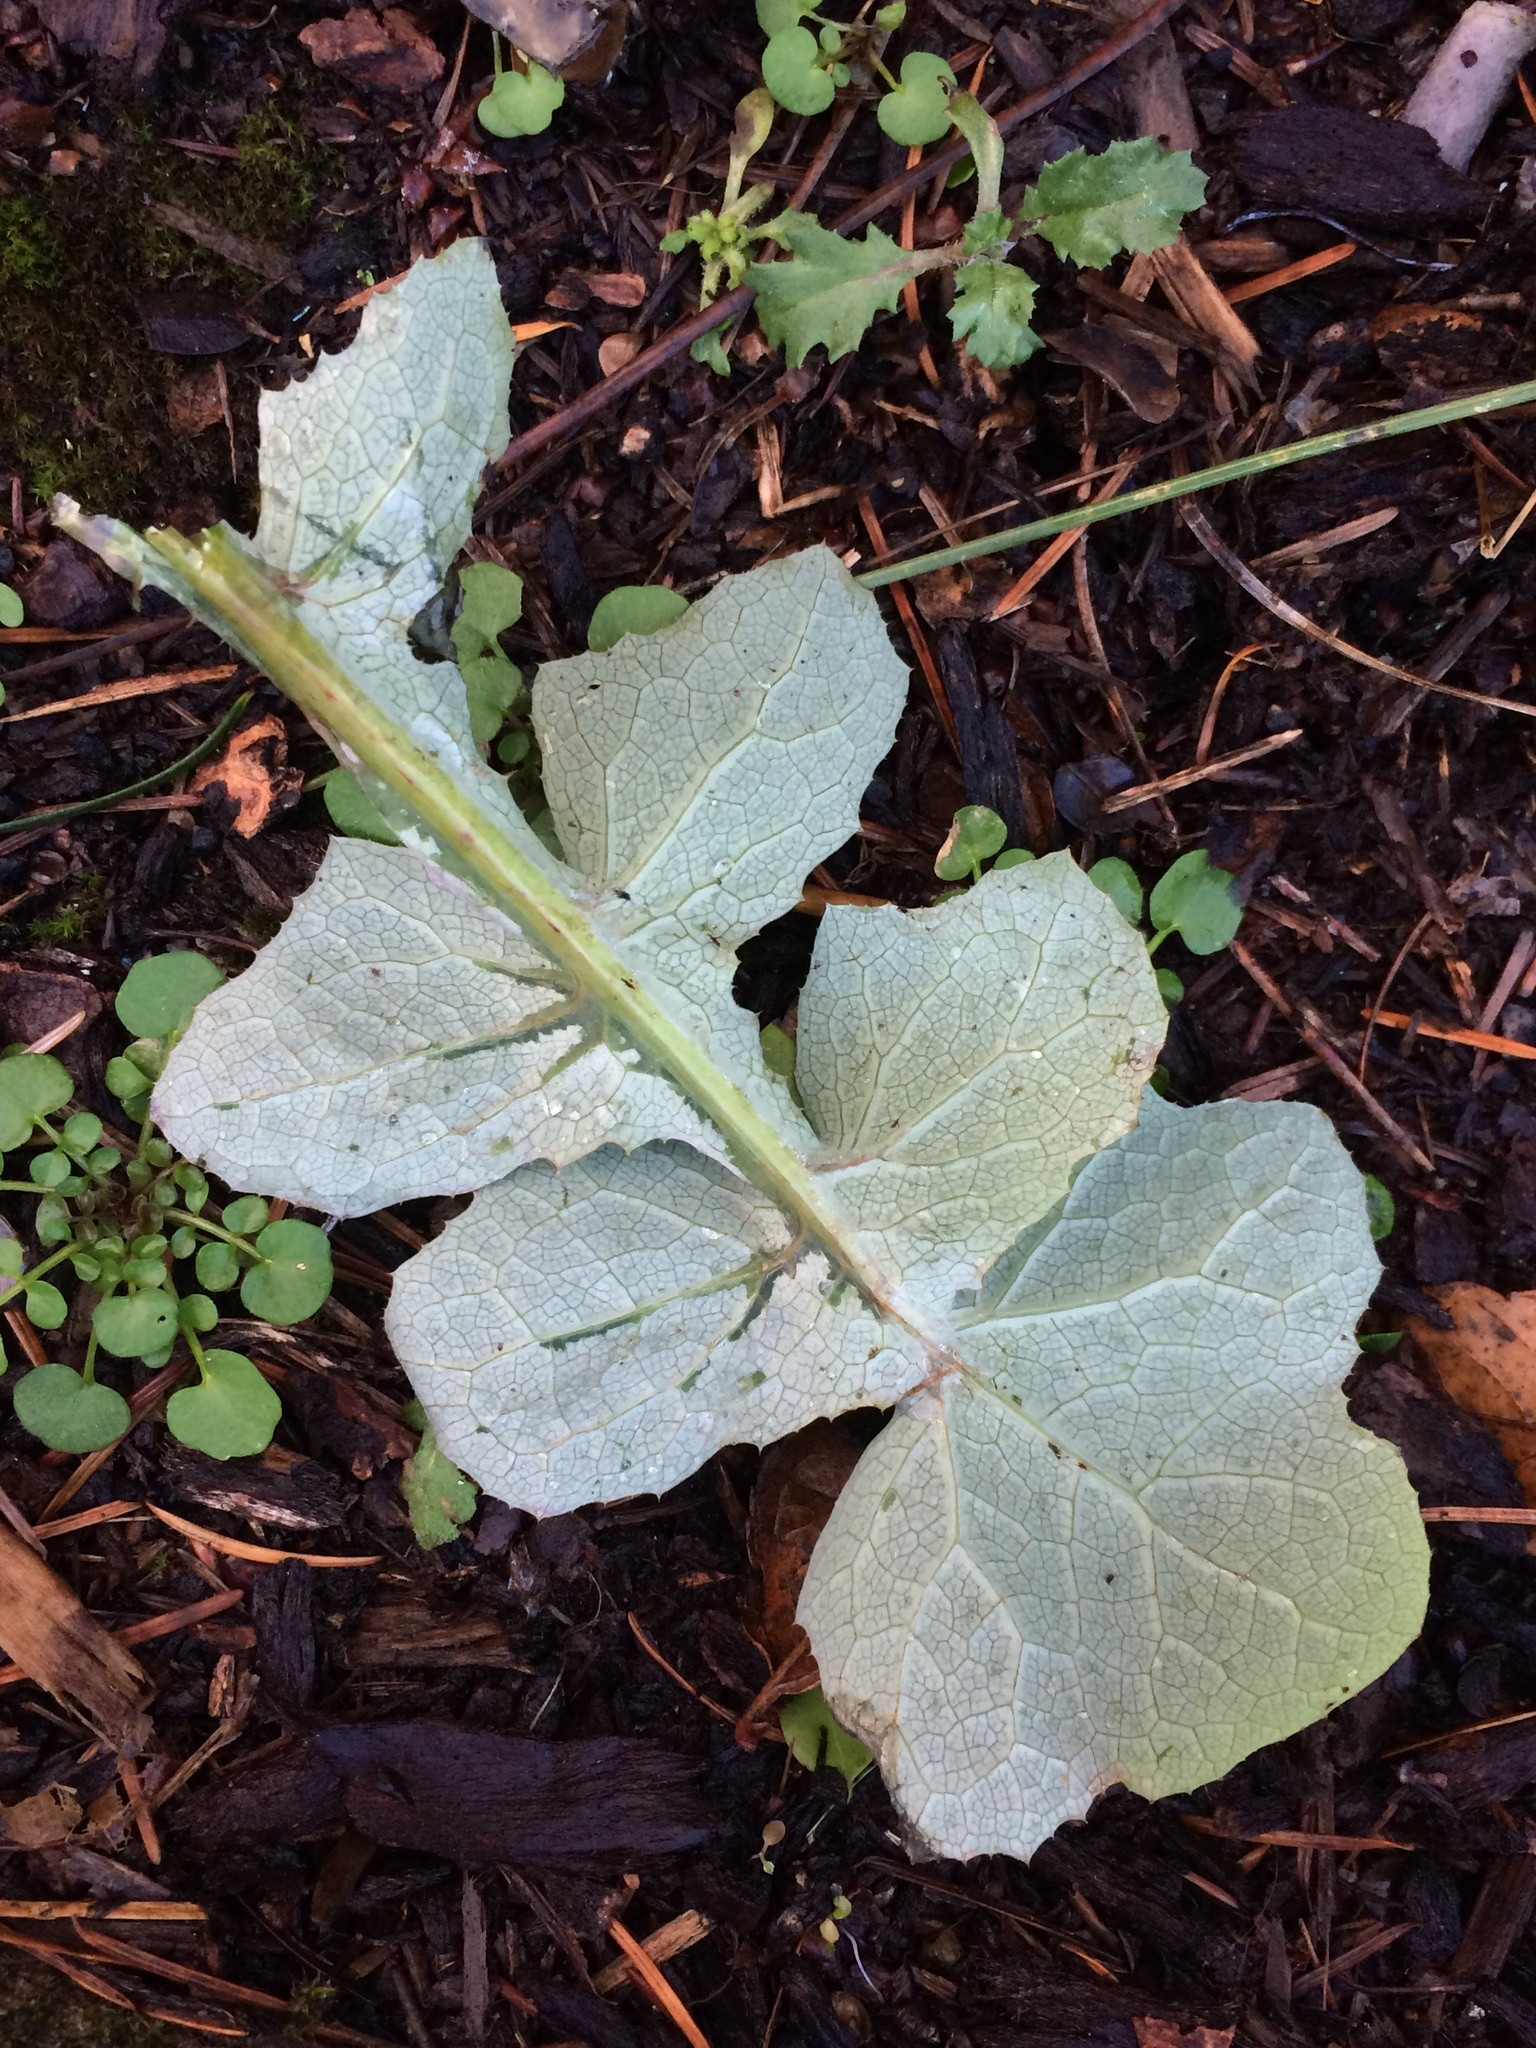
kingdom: Plantae
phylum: Tracheophyta
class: Magnoliopsida
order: Asterales
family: Asteraceae
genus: Sonchus
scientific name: Sonchus oleraceus
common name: Common sowthistle
